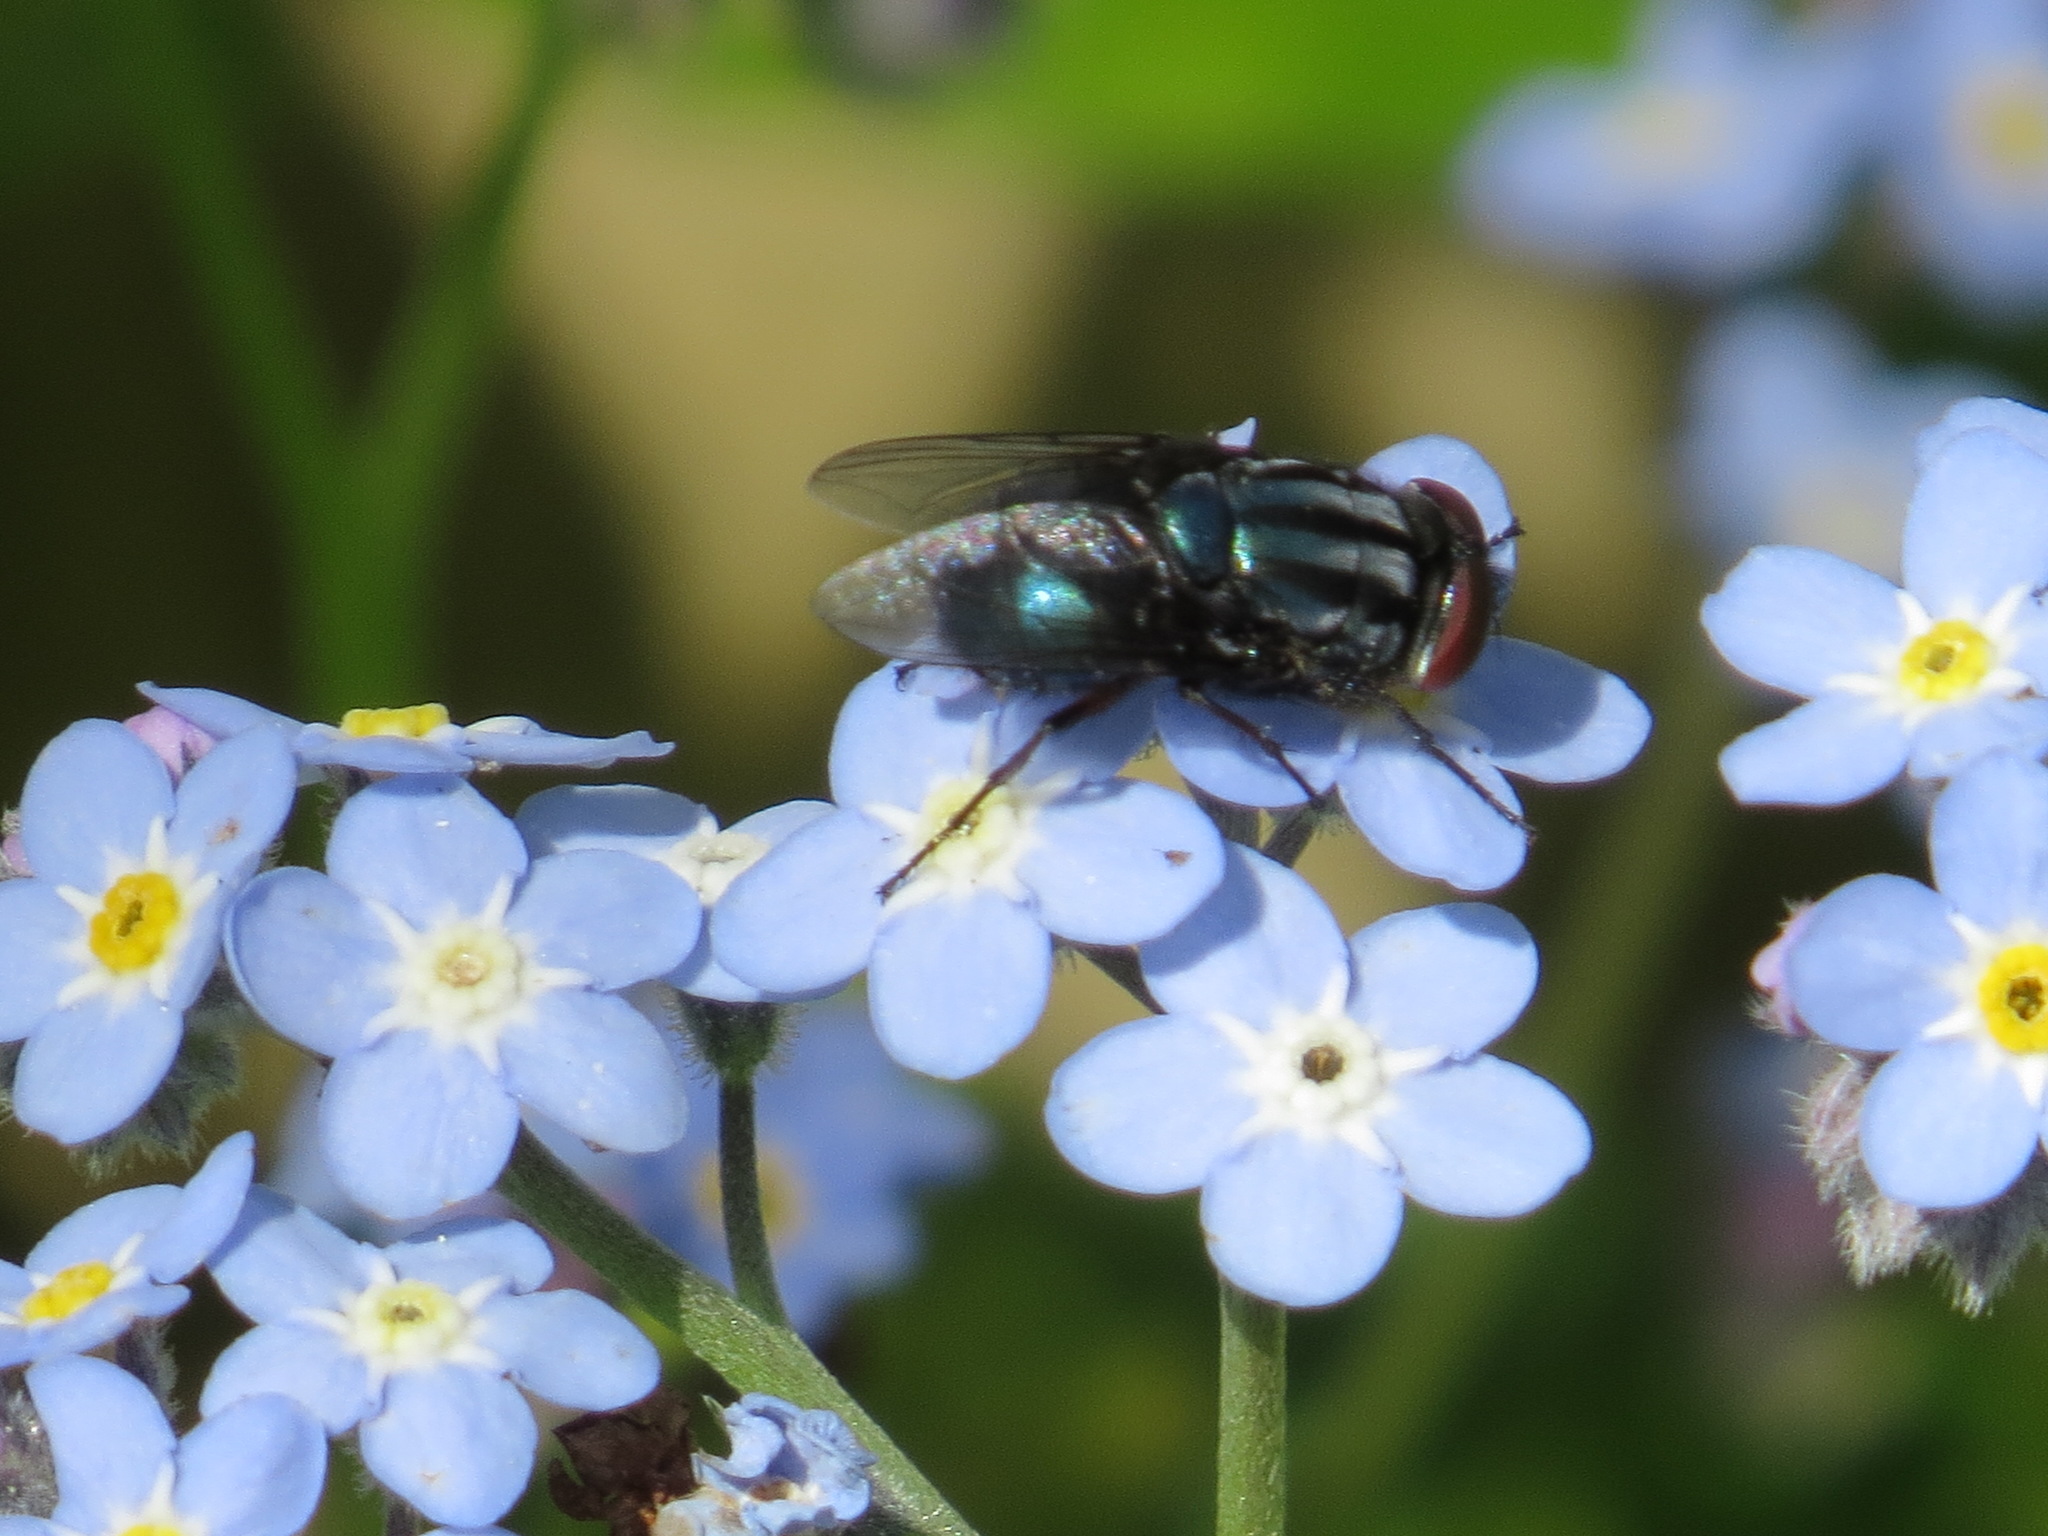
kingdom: Animalia
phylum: Arthropoda
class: Insecta
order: Diptera
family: Calliphoridae
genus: Compsomyiops
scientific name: Compsomyiops callipes
